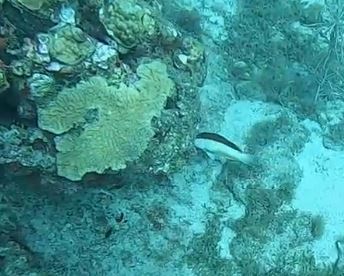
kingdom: Animalia
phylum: Chordata
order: Perciformes
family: Serranidae
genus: Cephalopholis
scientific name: Cephalopholis fulva
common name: Butterfish
